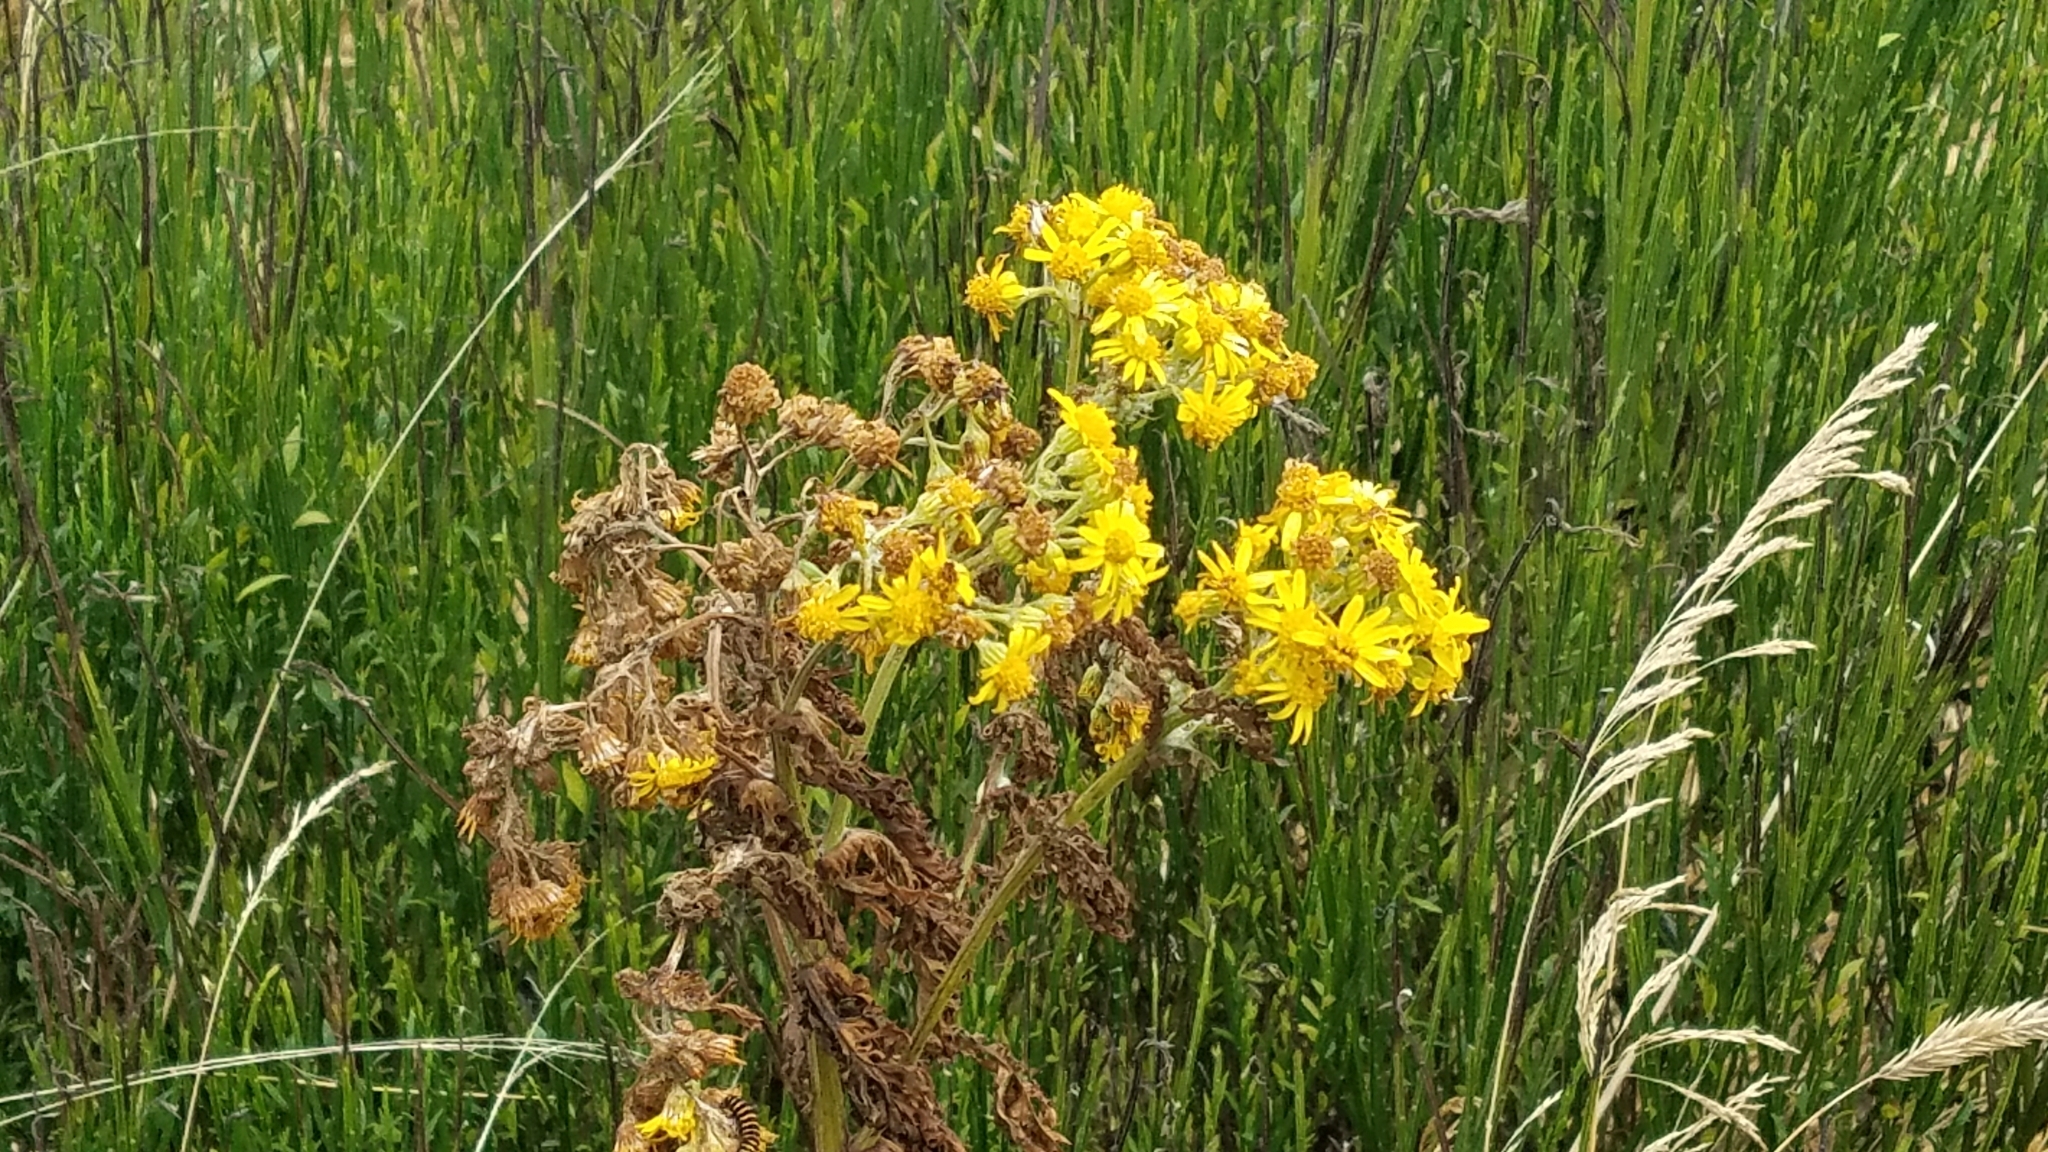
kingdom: Plantae
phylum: Tracheophyta
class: Magnoliopsida
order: Asterales
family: Asteraceae
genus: Jacobaea
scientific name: Jacobaea vulgaris
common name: Stinking willie
